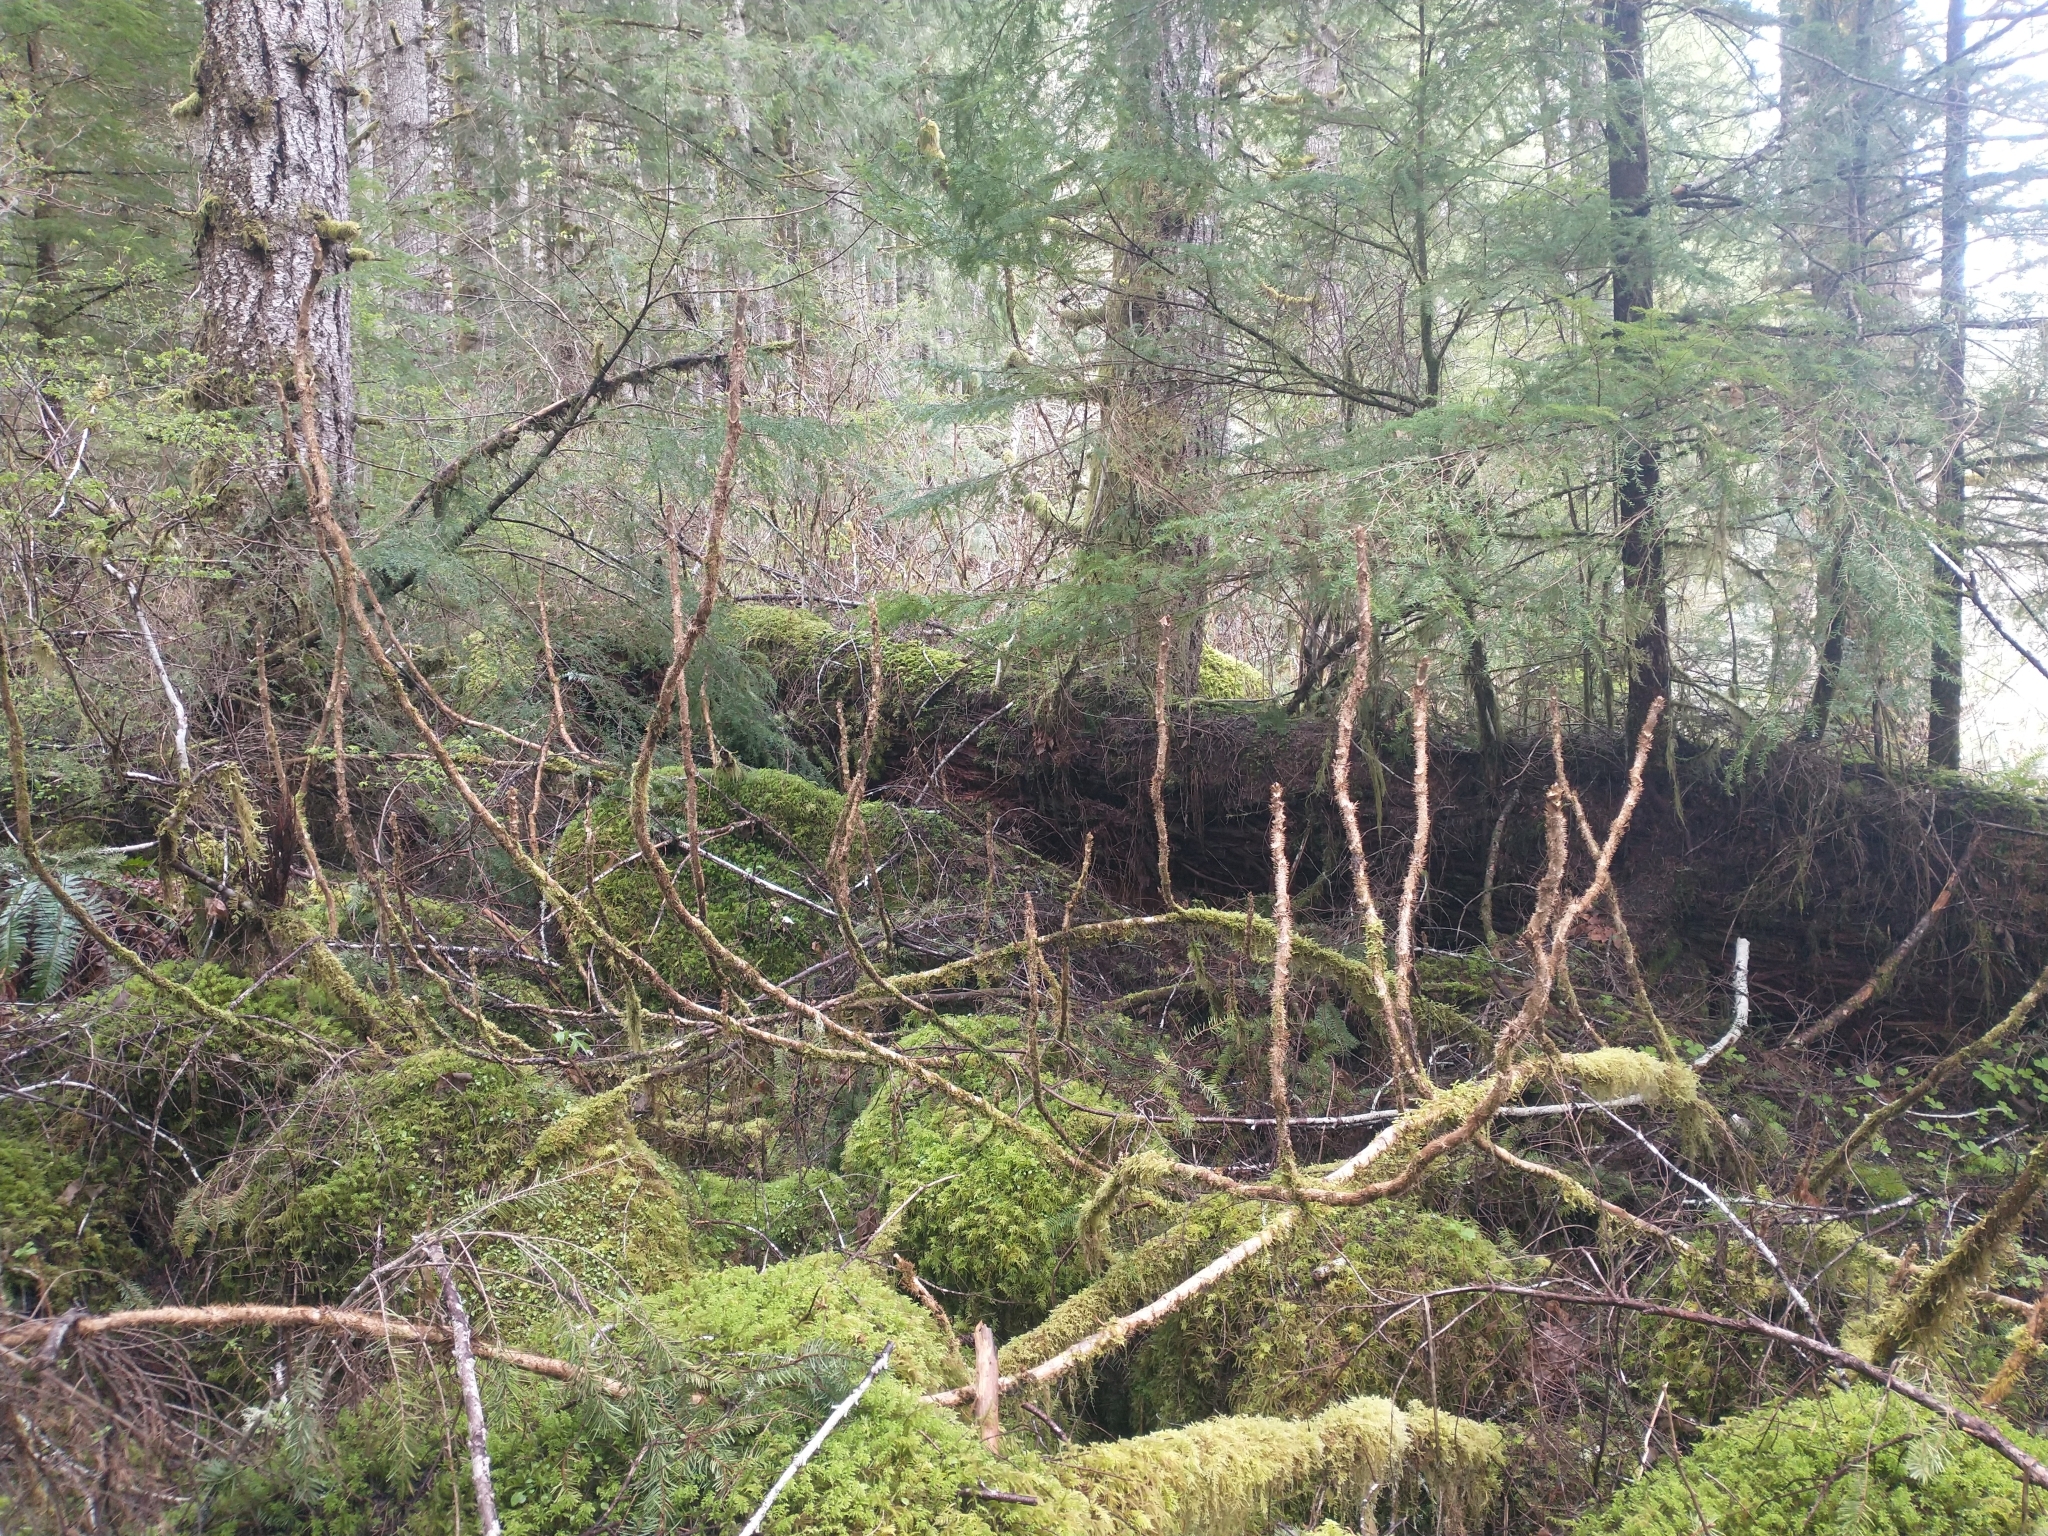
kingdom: Plantae
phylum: Tracheophyta
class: Magnoliopsida
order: Apiales
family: Araliaceae
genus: Oplopanax
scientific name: Oplopanax horridus
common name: Devil's walking-stick
